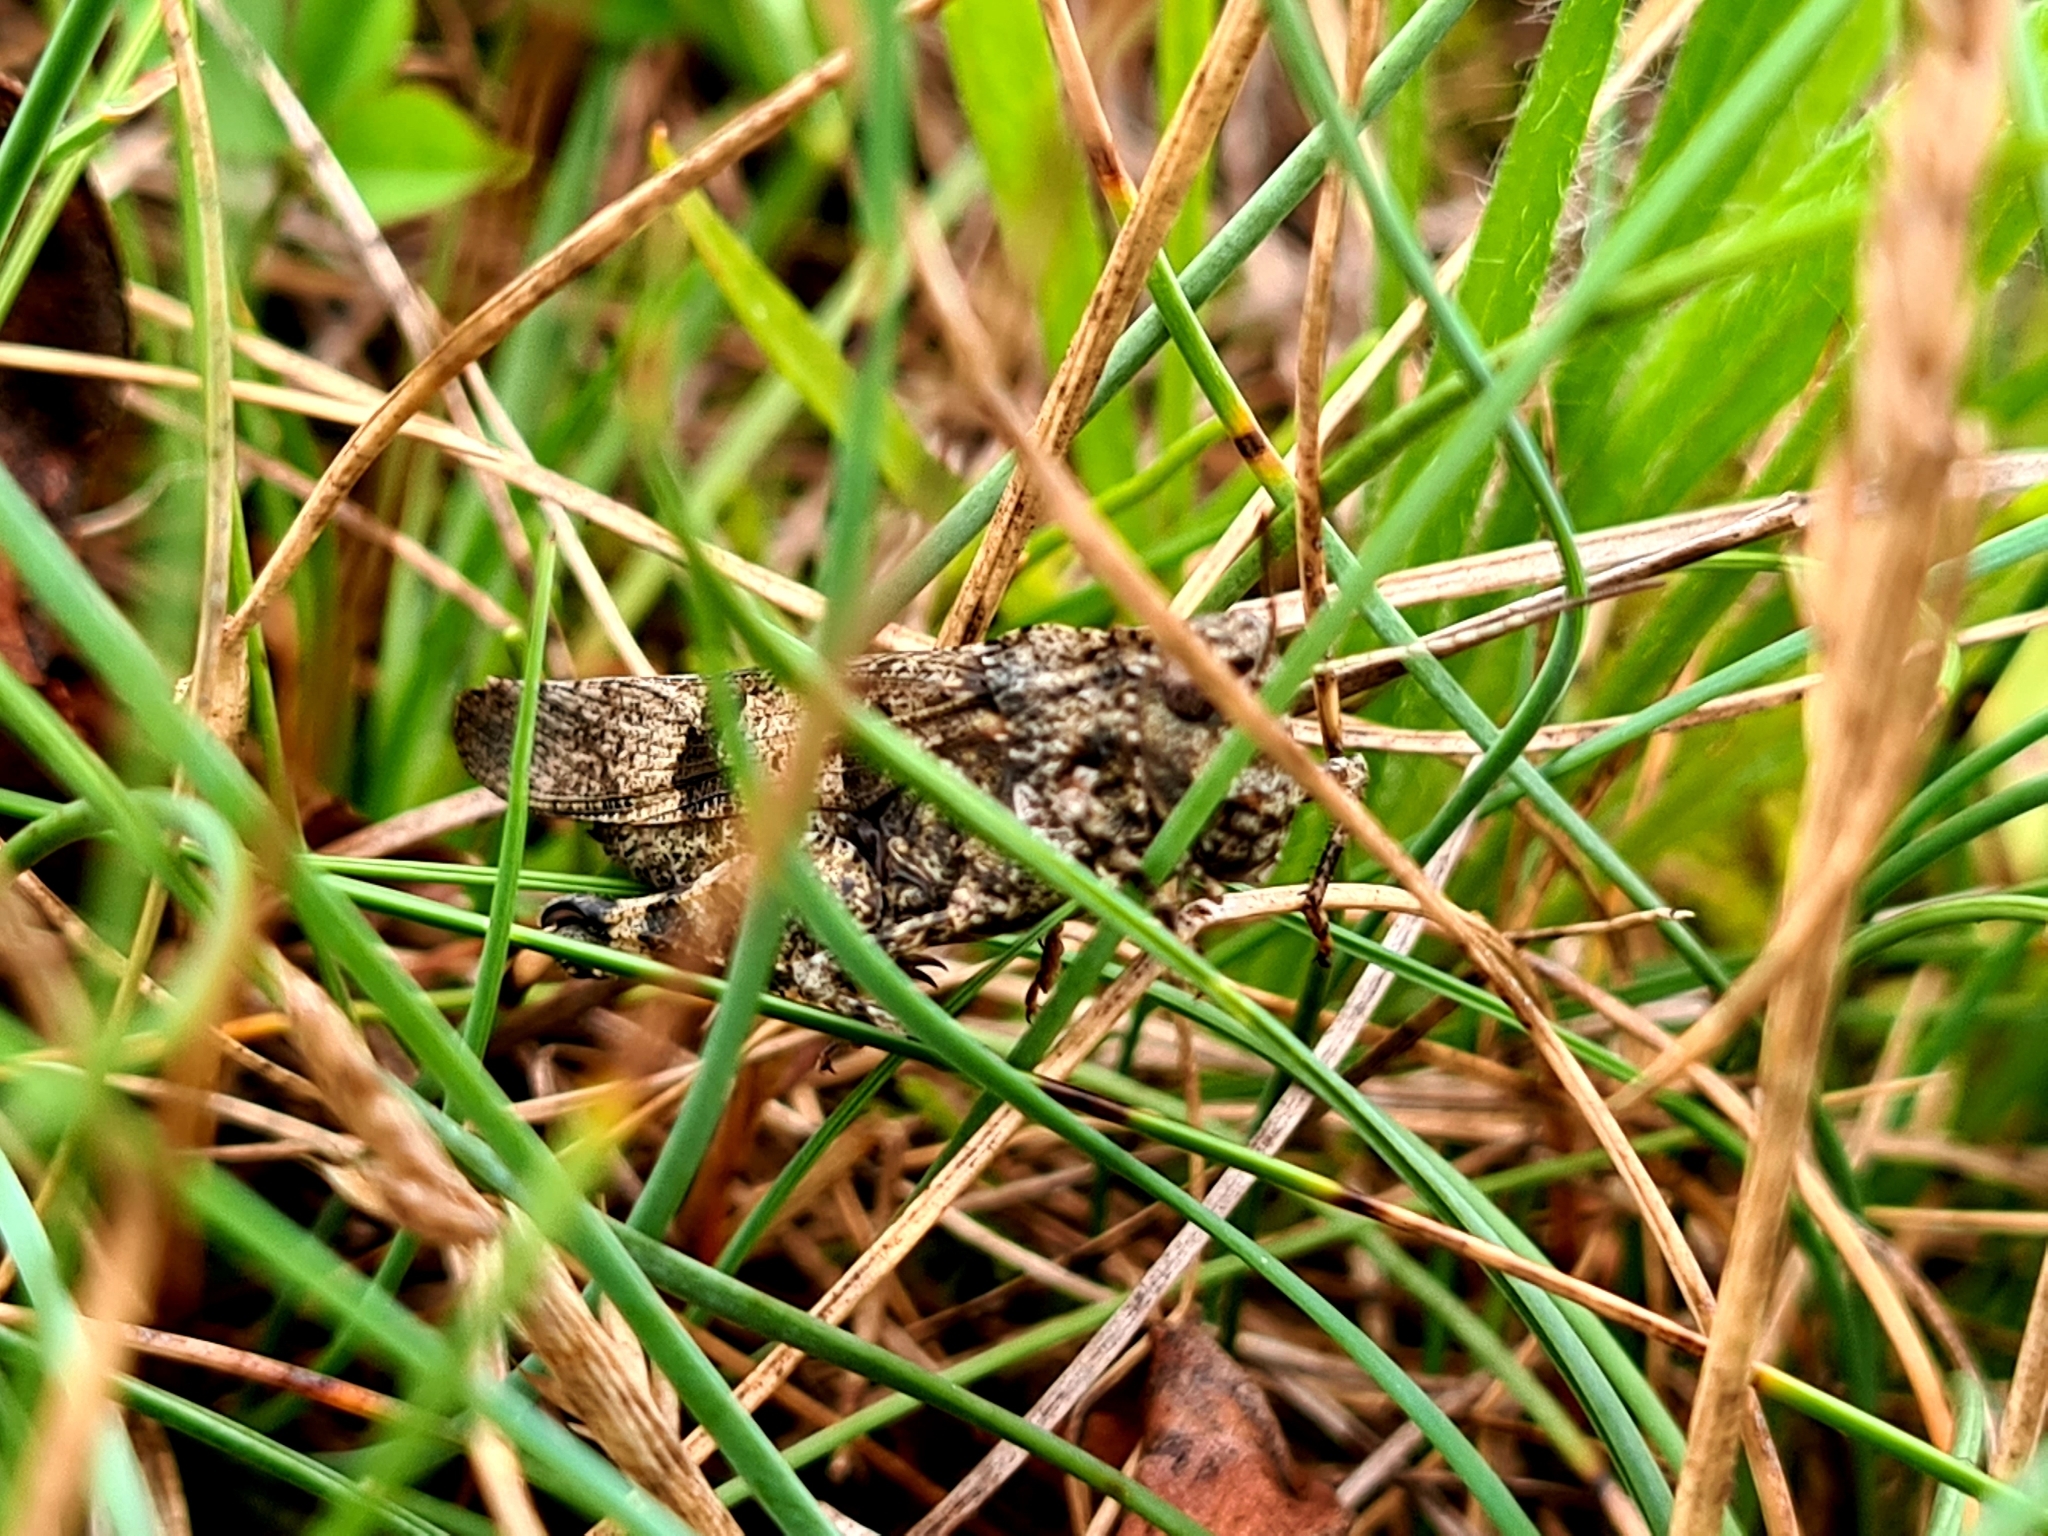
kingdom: Animalia
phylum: Arthropoda
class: Insecta
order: Orthoptera
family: Acrididae
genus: Oedipoda
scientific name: Oedipoda caerulescens
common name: Blue-winged grasshopper
